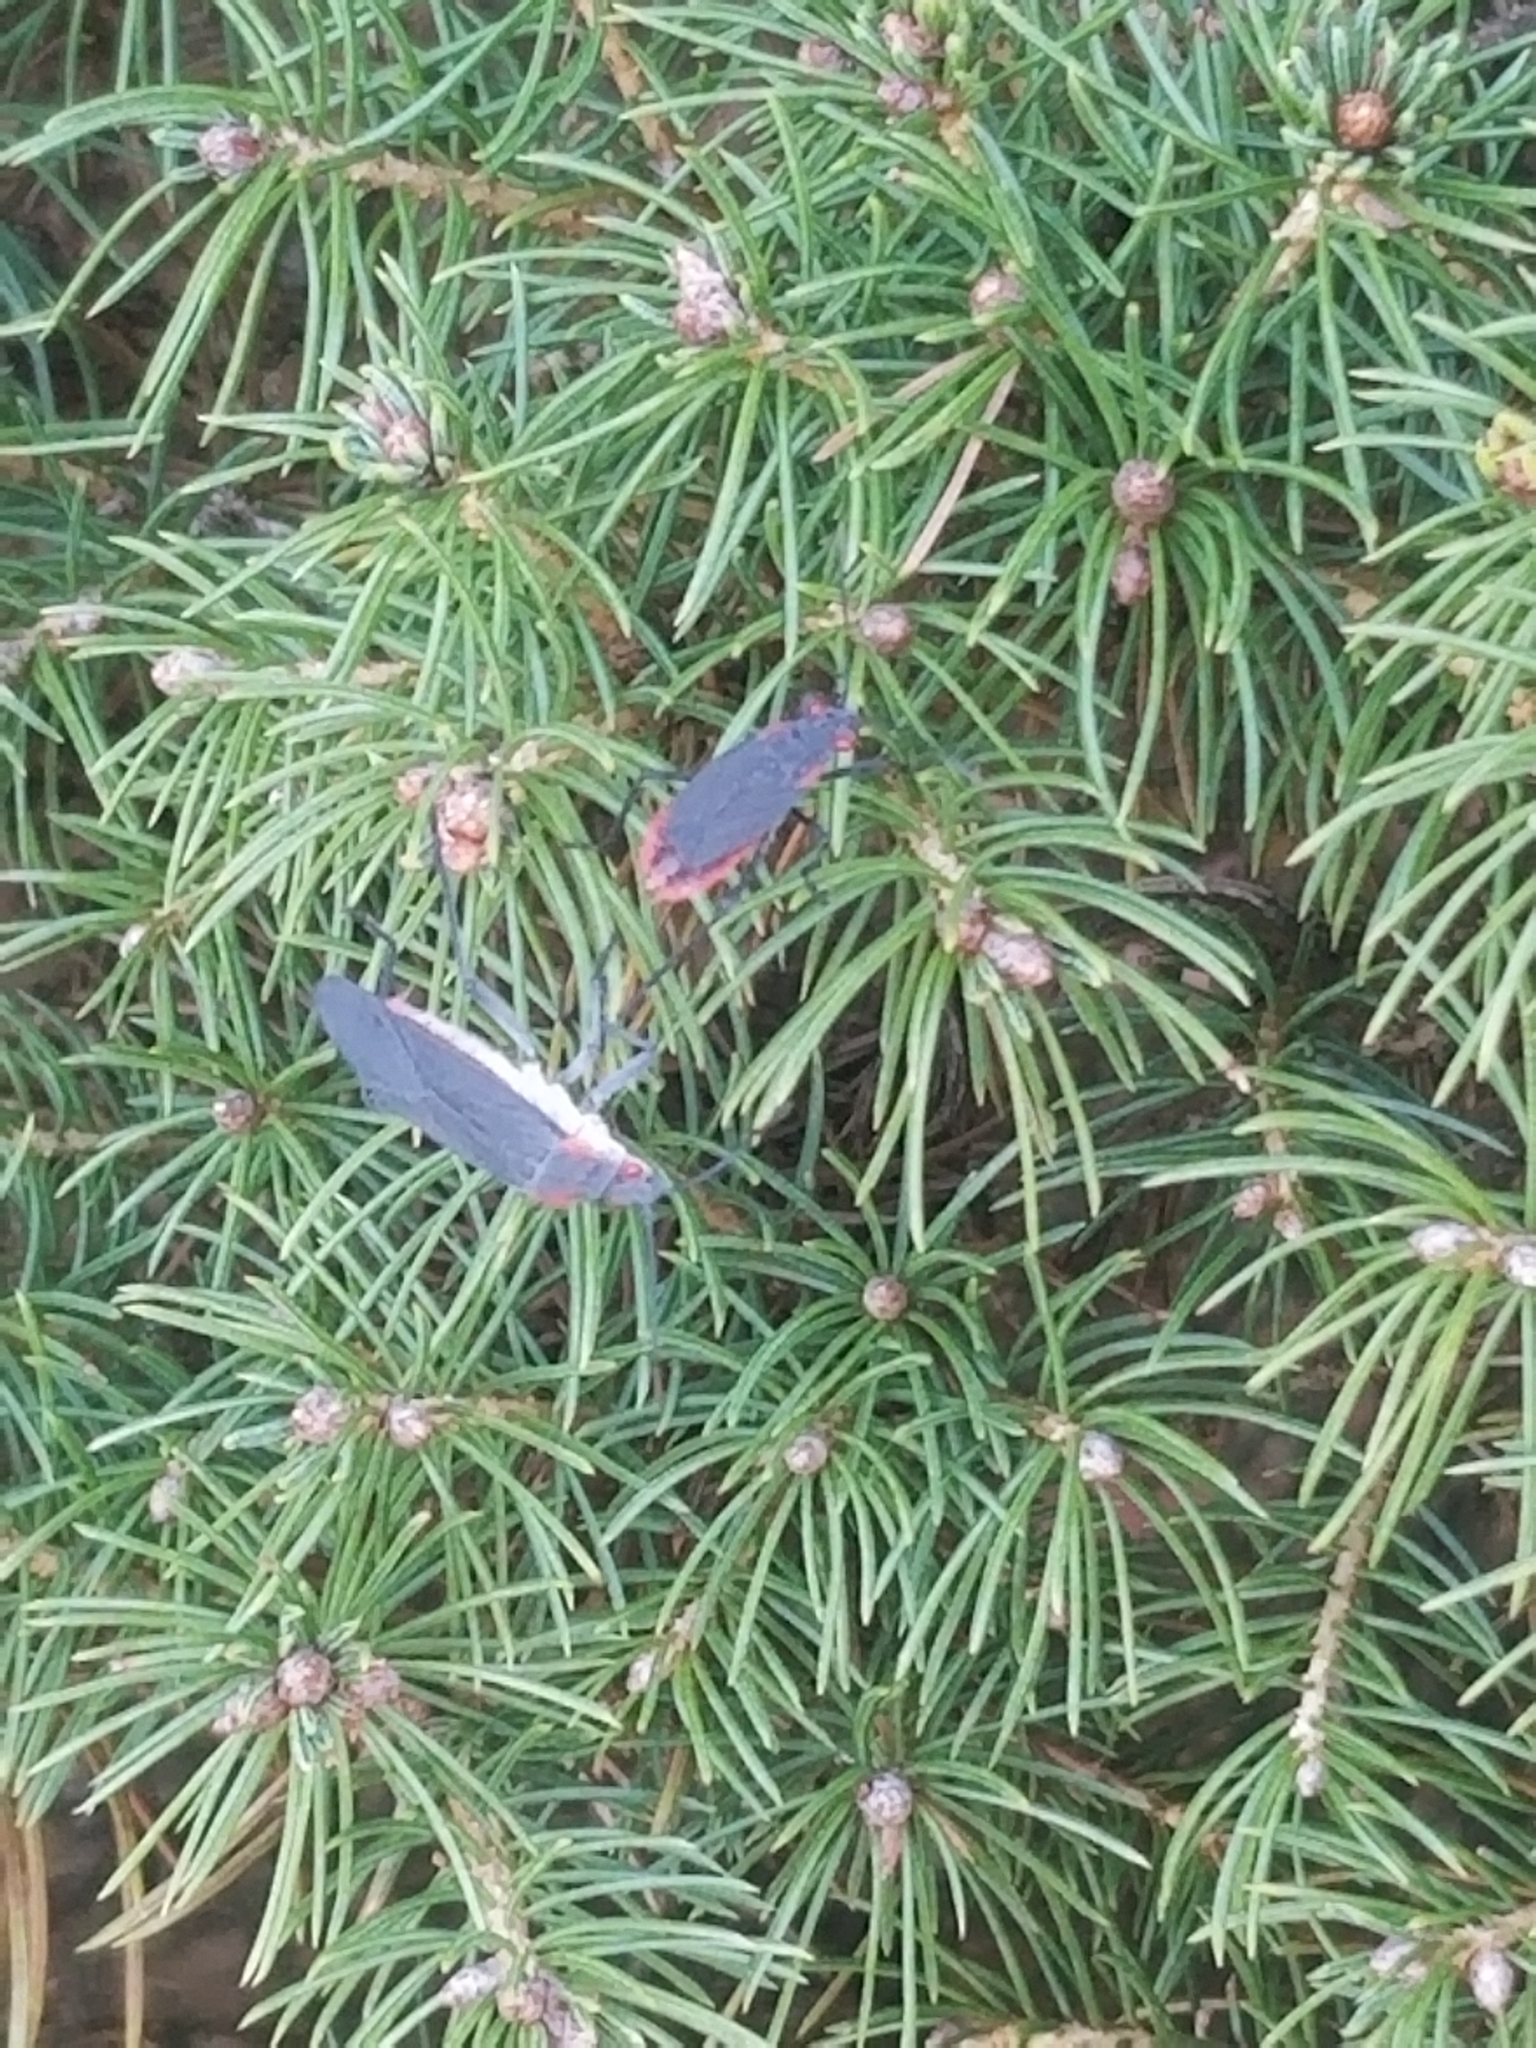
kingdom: Animalia
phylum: Arthropoda
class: Insecta
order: Hemiptera
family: Rhopalidae
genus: Jadera
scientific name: Jadera haematoloma
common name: Red-shouldered bug
